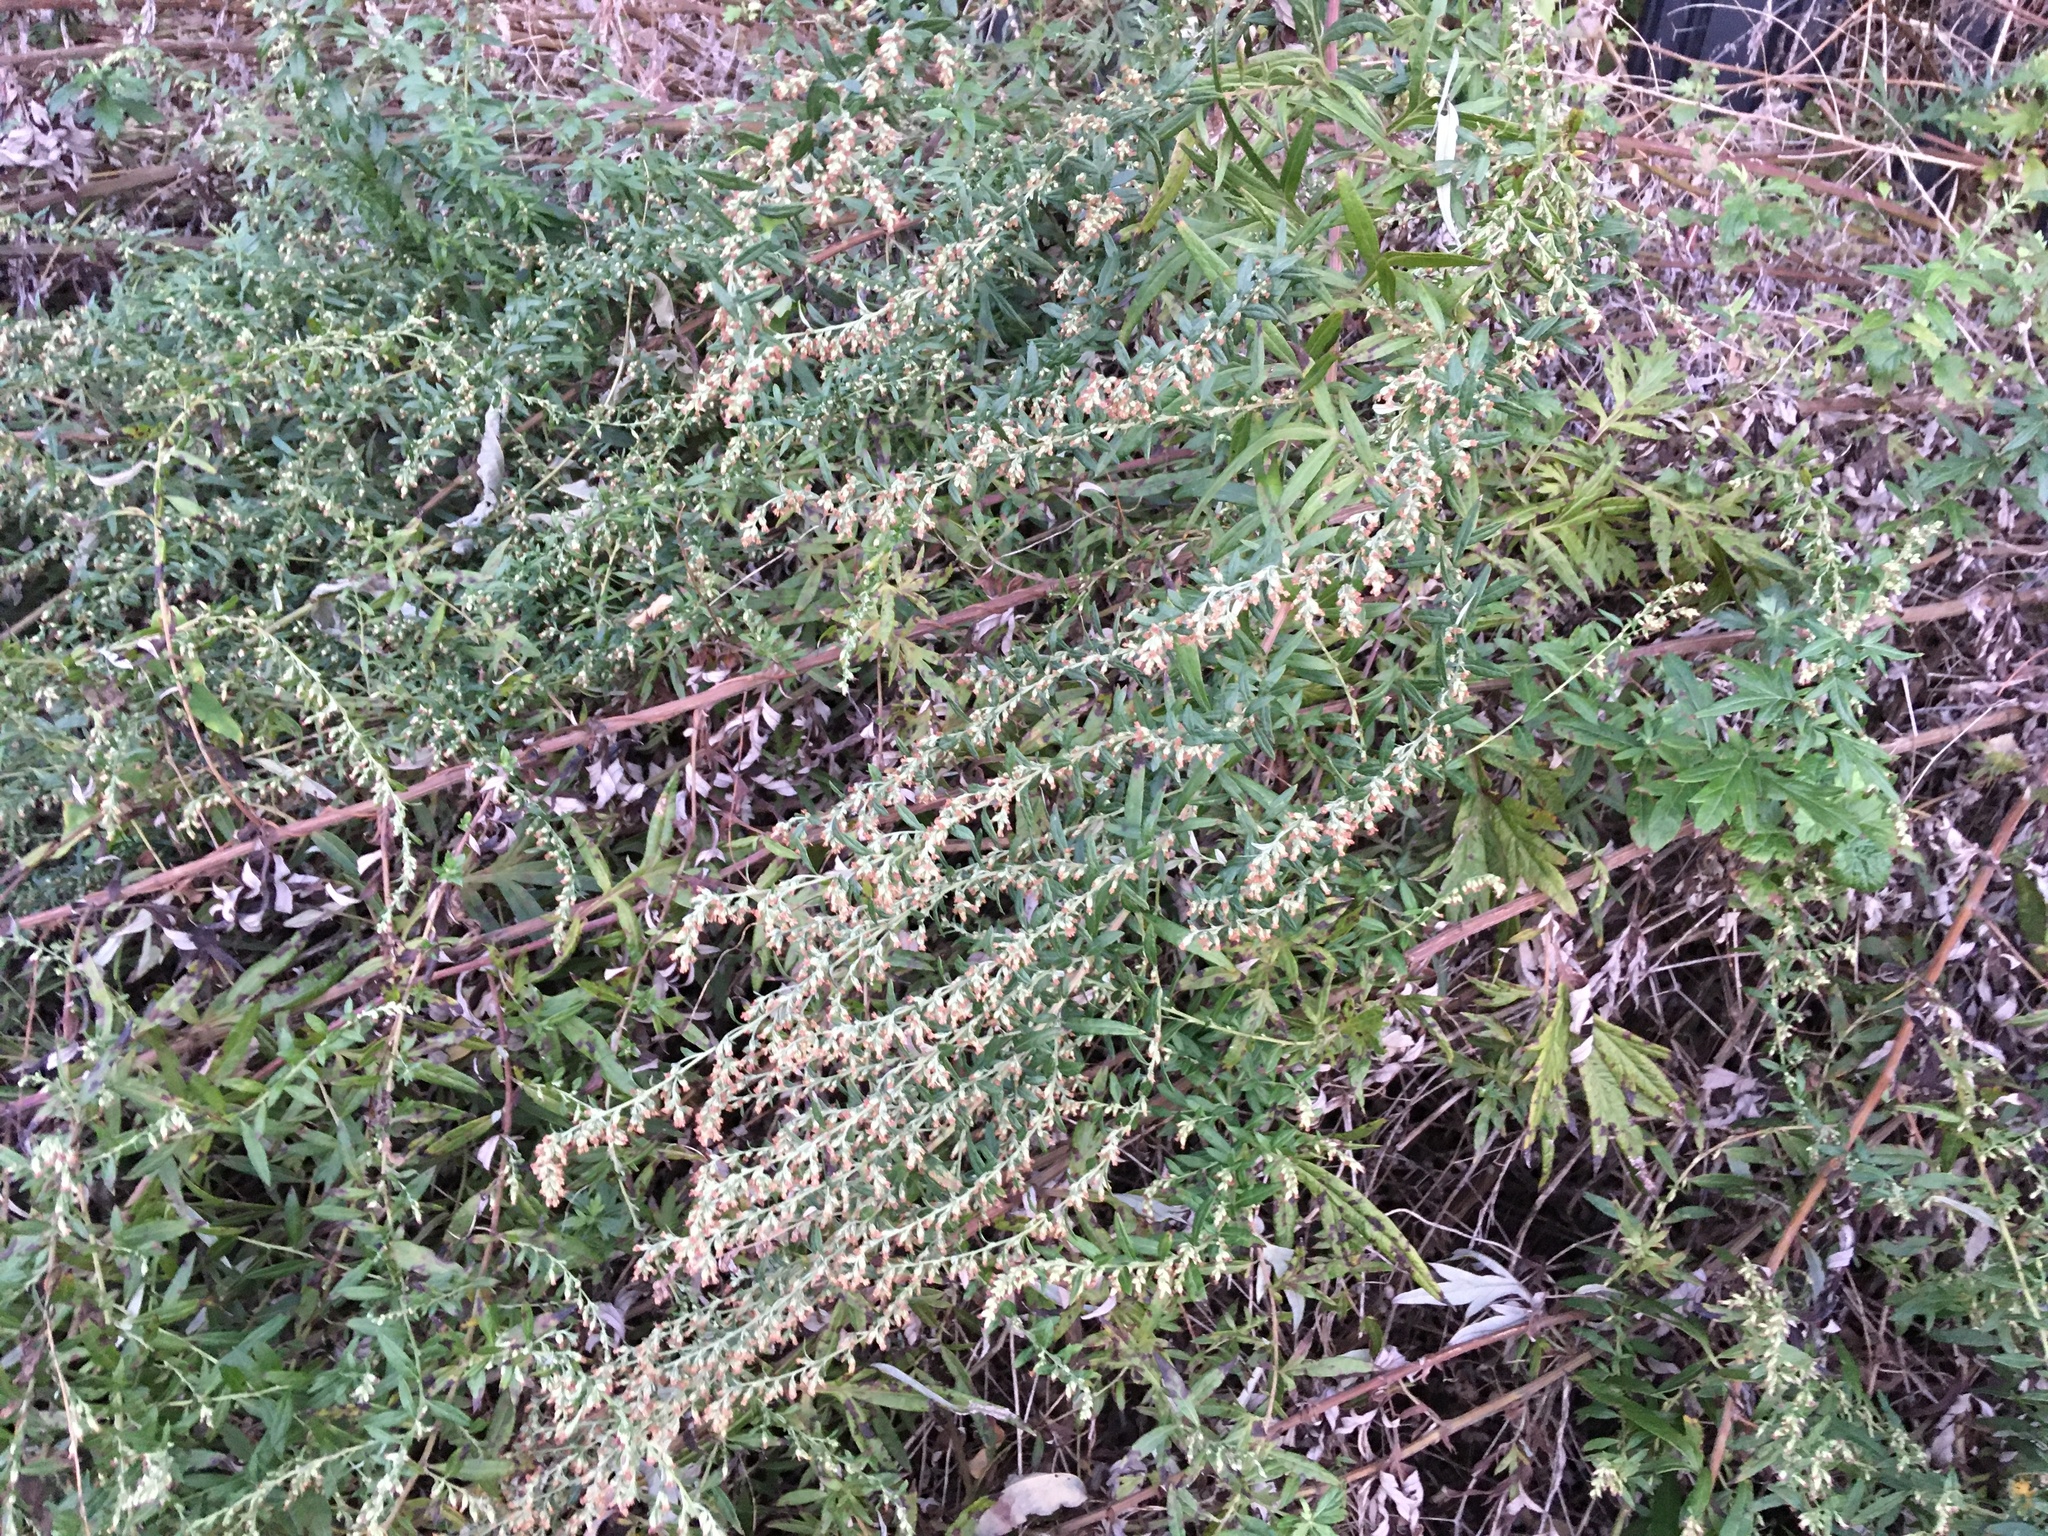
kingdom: Plantae
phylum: Tracheophyta
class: Magnoliopsida
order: Asterales
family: Asteraceae
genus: Artemisia
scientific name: Artemisia vulgaris
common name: Mugwort
